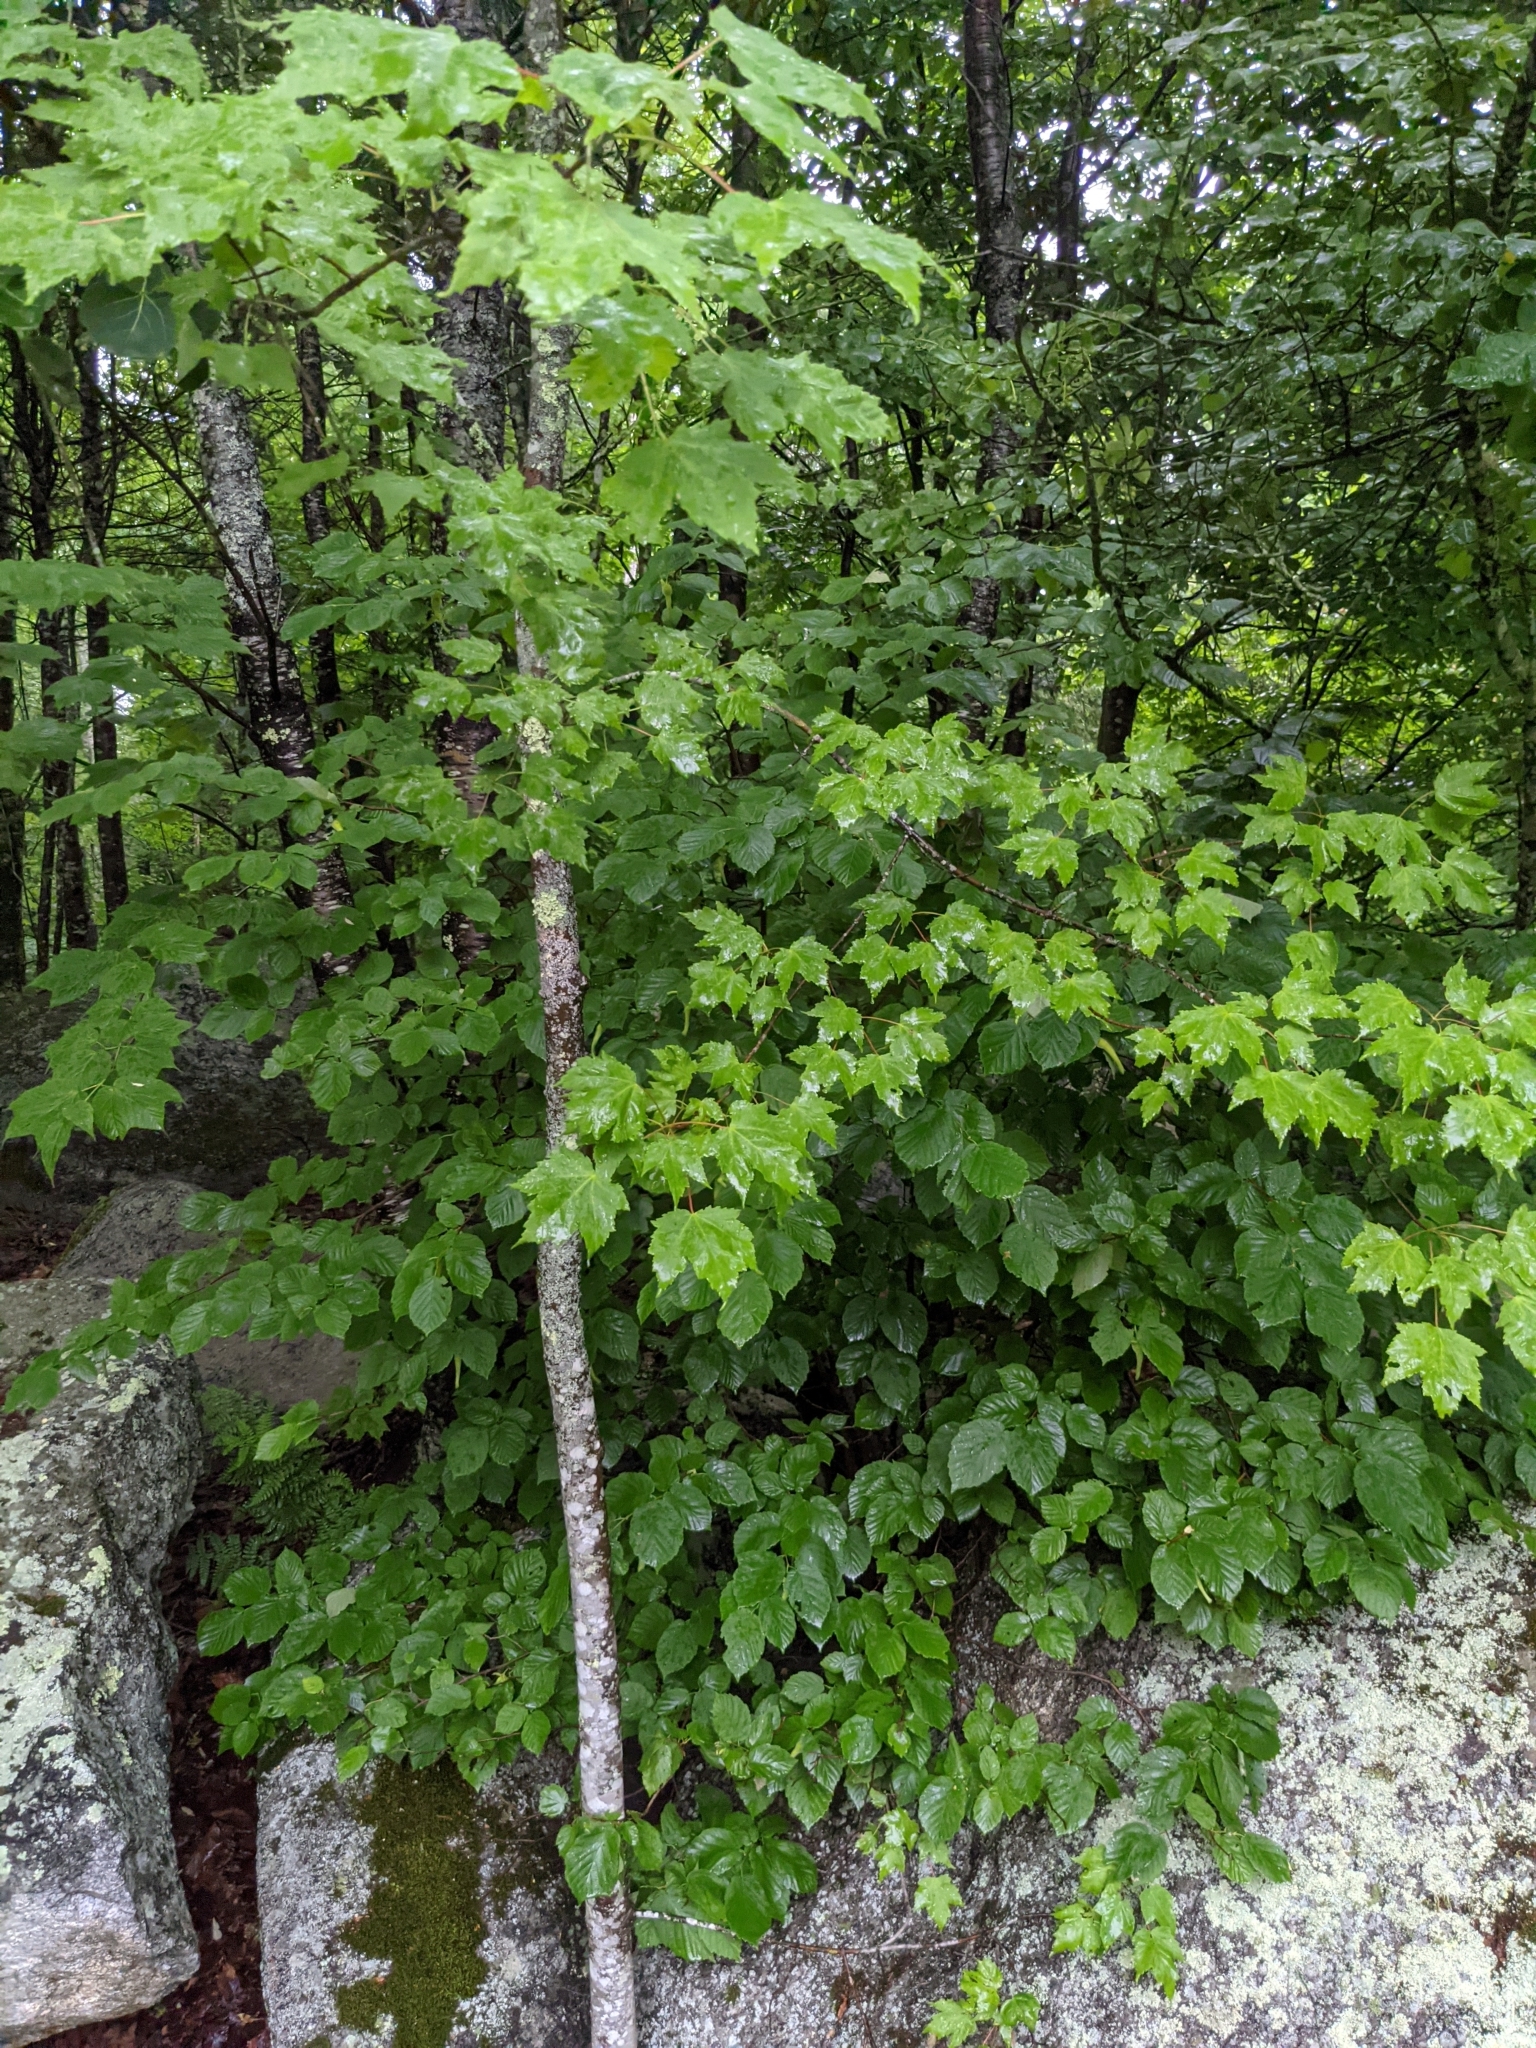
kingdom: Plantae
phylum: Tracheophyta
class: Magnoliopsida
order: Sapindales
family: Sapindaceae
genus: Acer
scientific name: Acer rubrum
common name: Red maple
